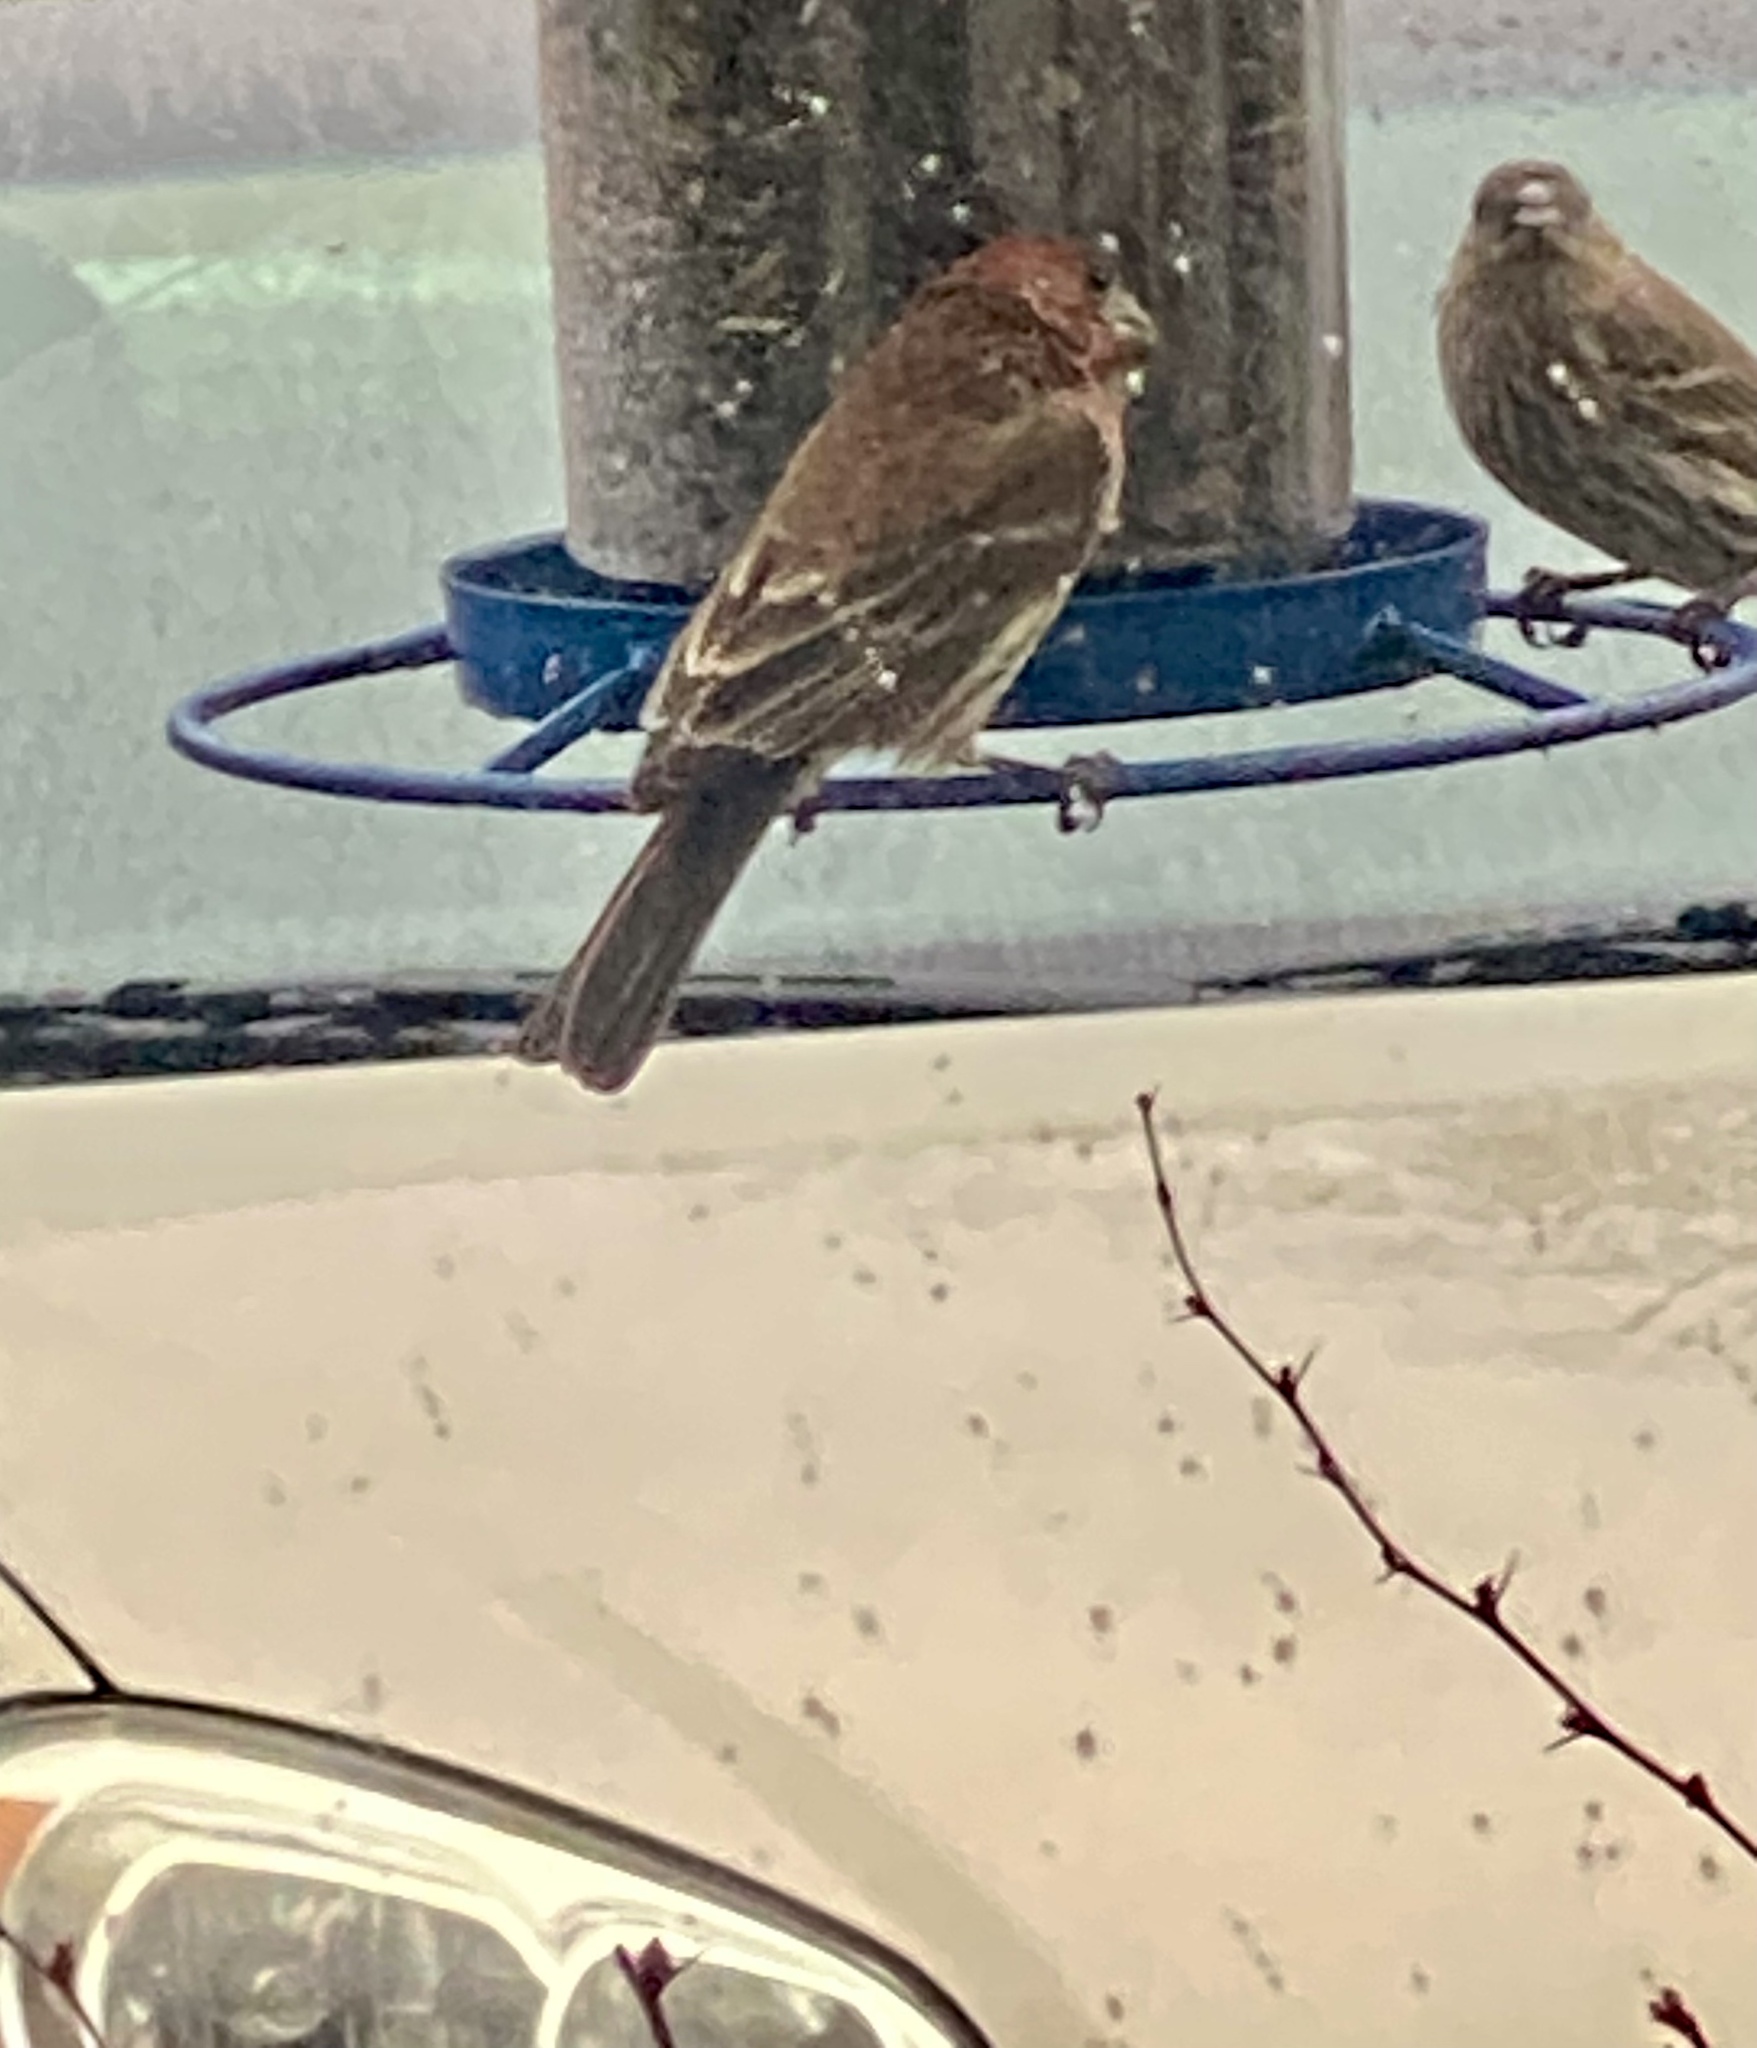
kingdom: Animalia
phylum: Chordata
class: Aves
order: Passeriformes
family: Fringillidae
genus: Haemorhous
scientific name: Haemorhous mexicanus
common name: House finch
